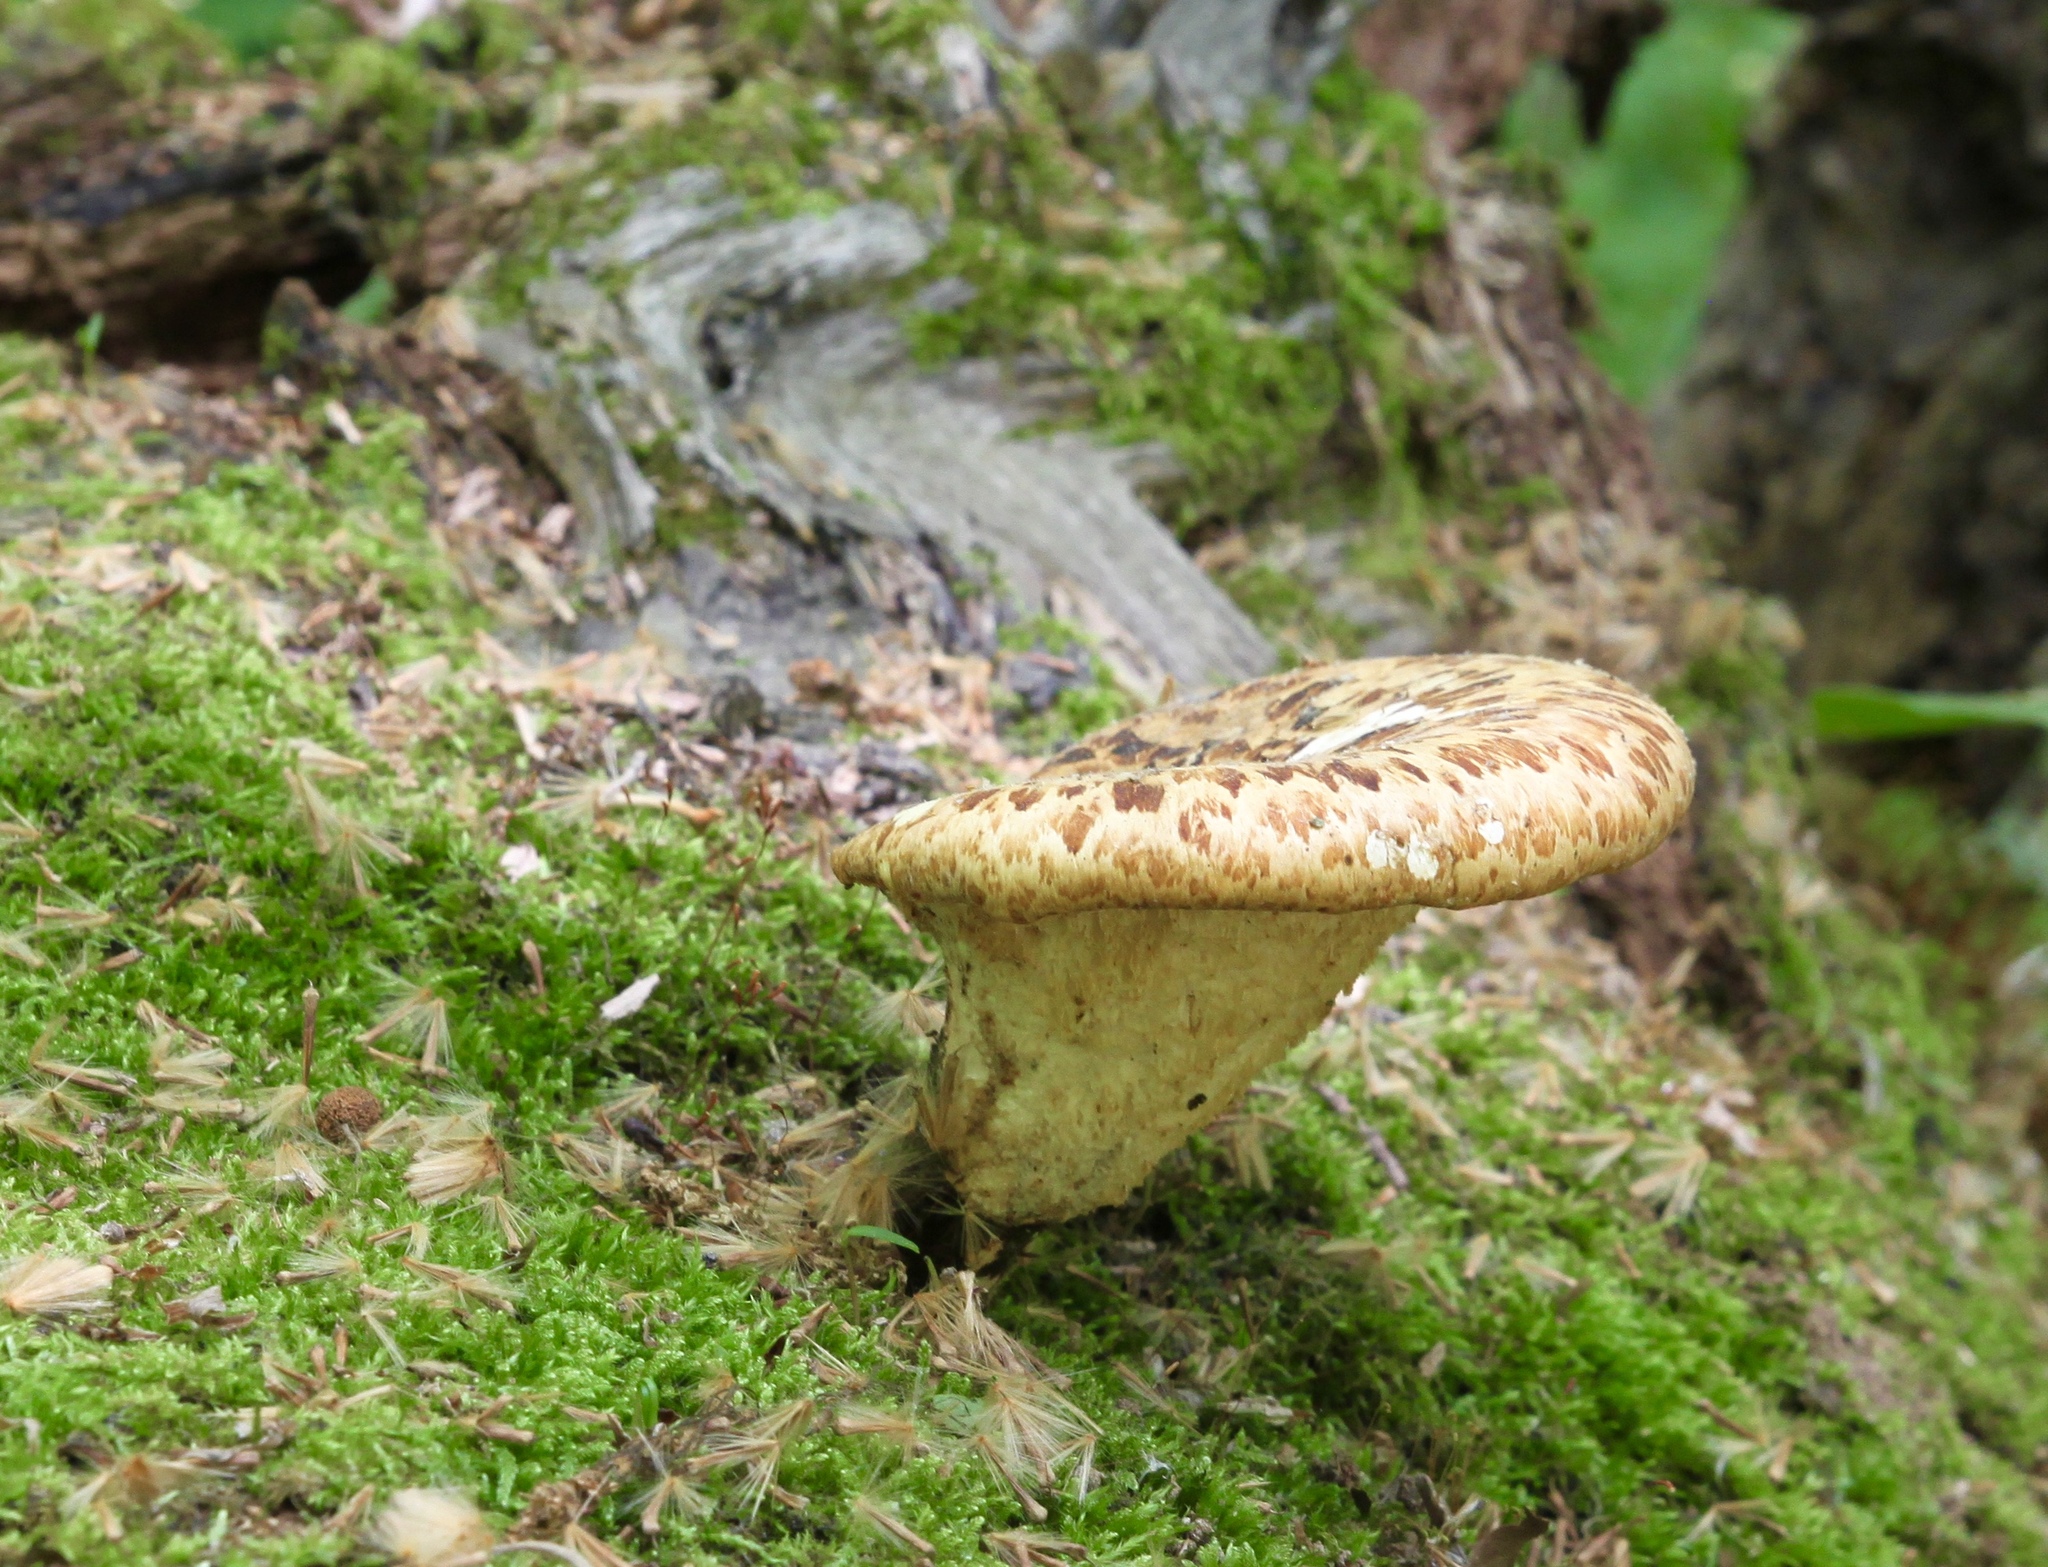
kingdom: Fungi
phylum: Basidiomycota
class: Agaricomycetes
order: Polyporales
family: Polyporaceae
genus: Cerioporus
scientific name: Cerioporus squamosus
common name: Dryad's saddle
